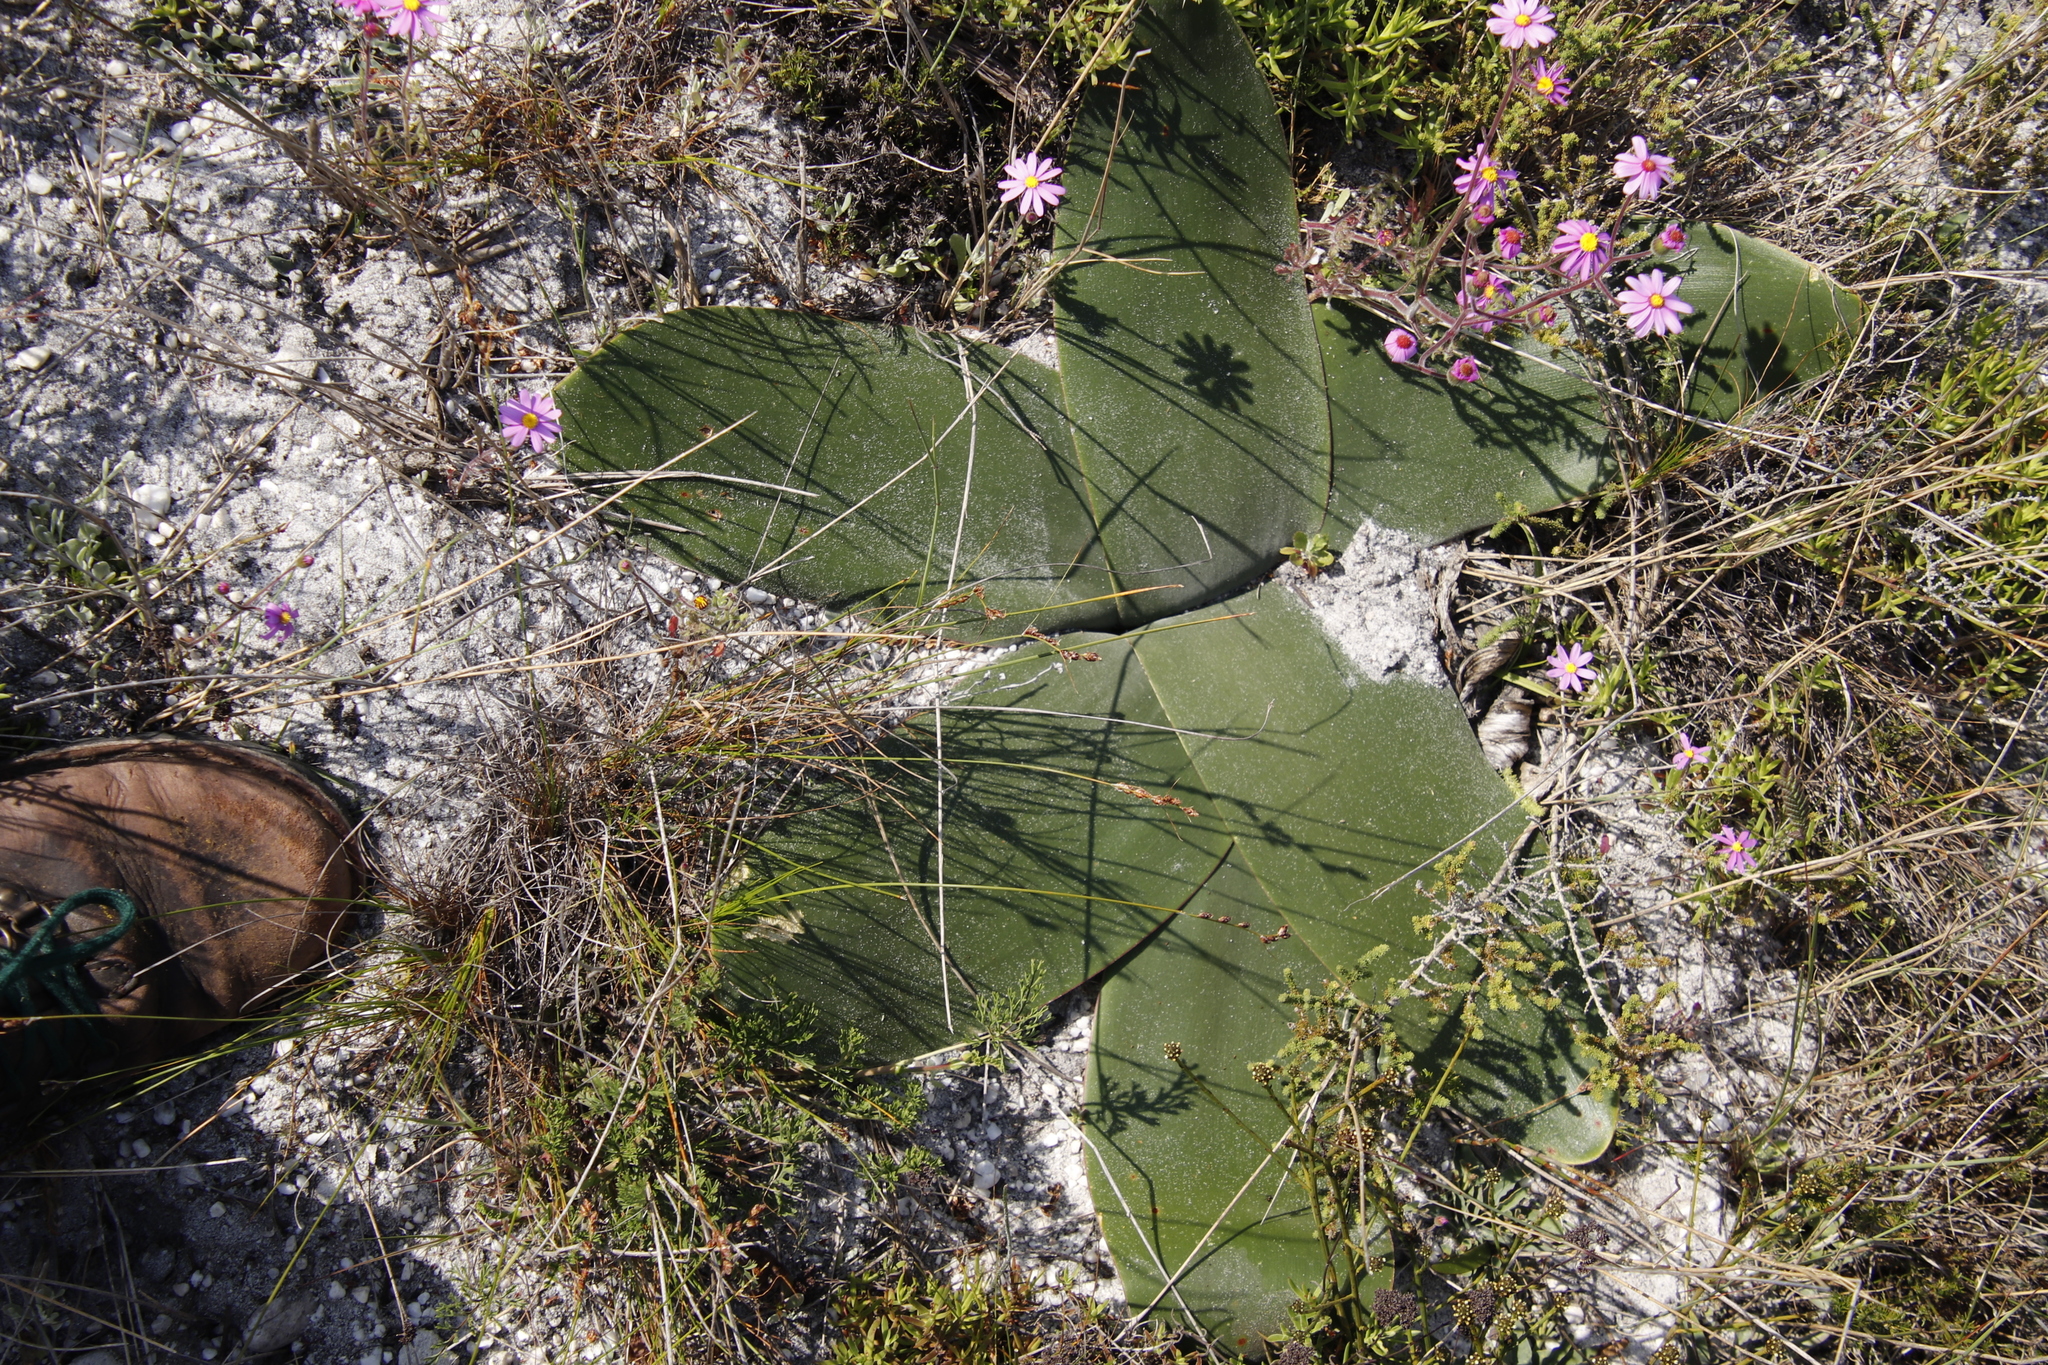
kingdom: Plantae
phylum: Tracheophyta
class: Liliopsida
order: Asparagales
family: Amaryllidaceae
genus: Brunsvigia
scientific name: Brunsvigia orientalis
